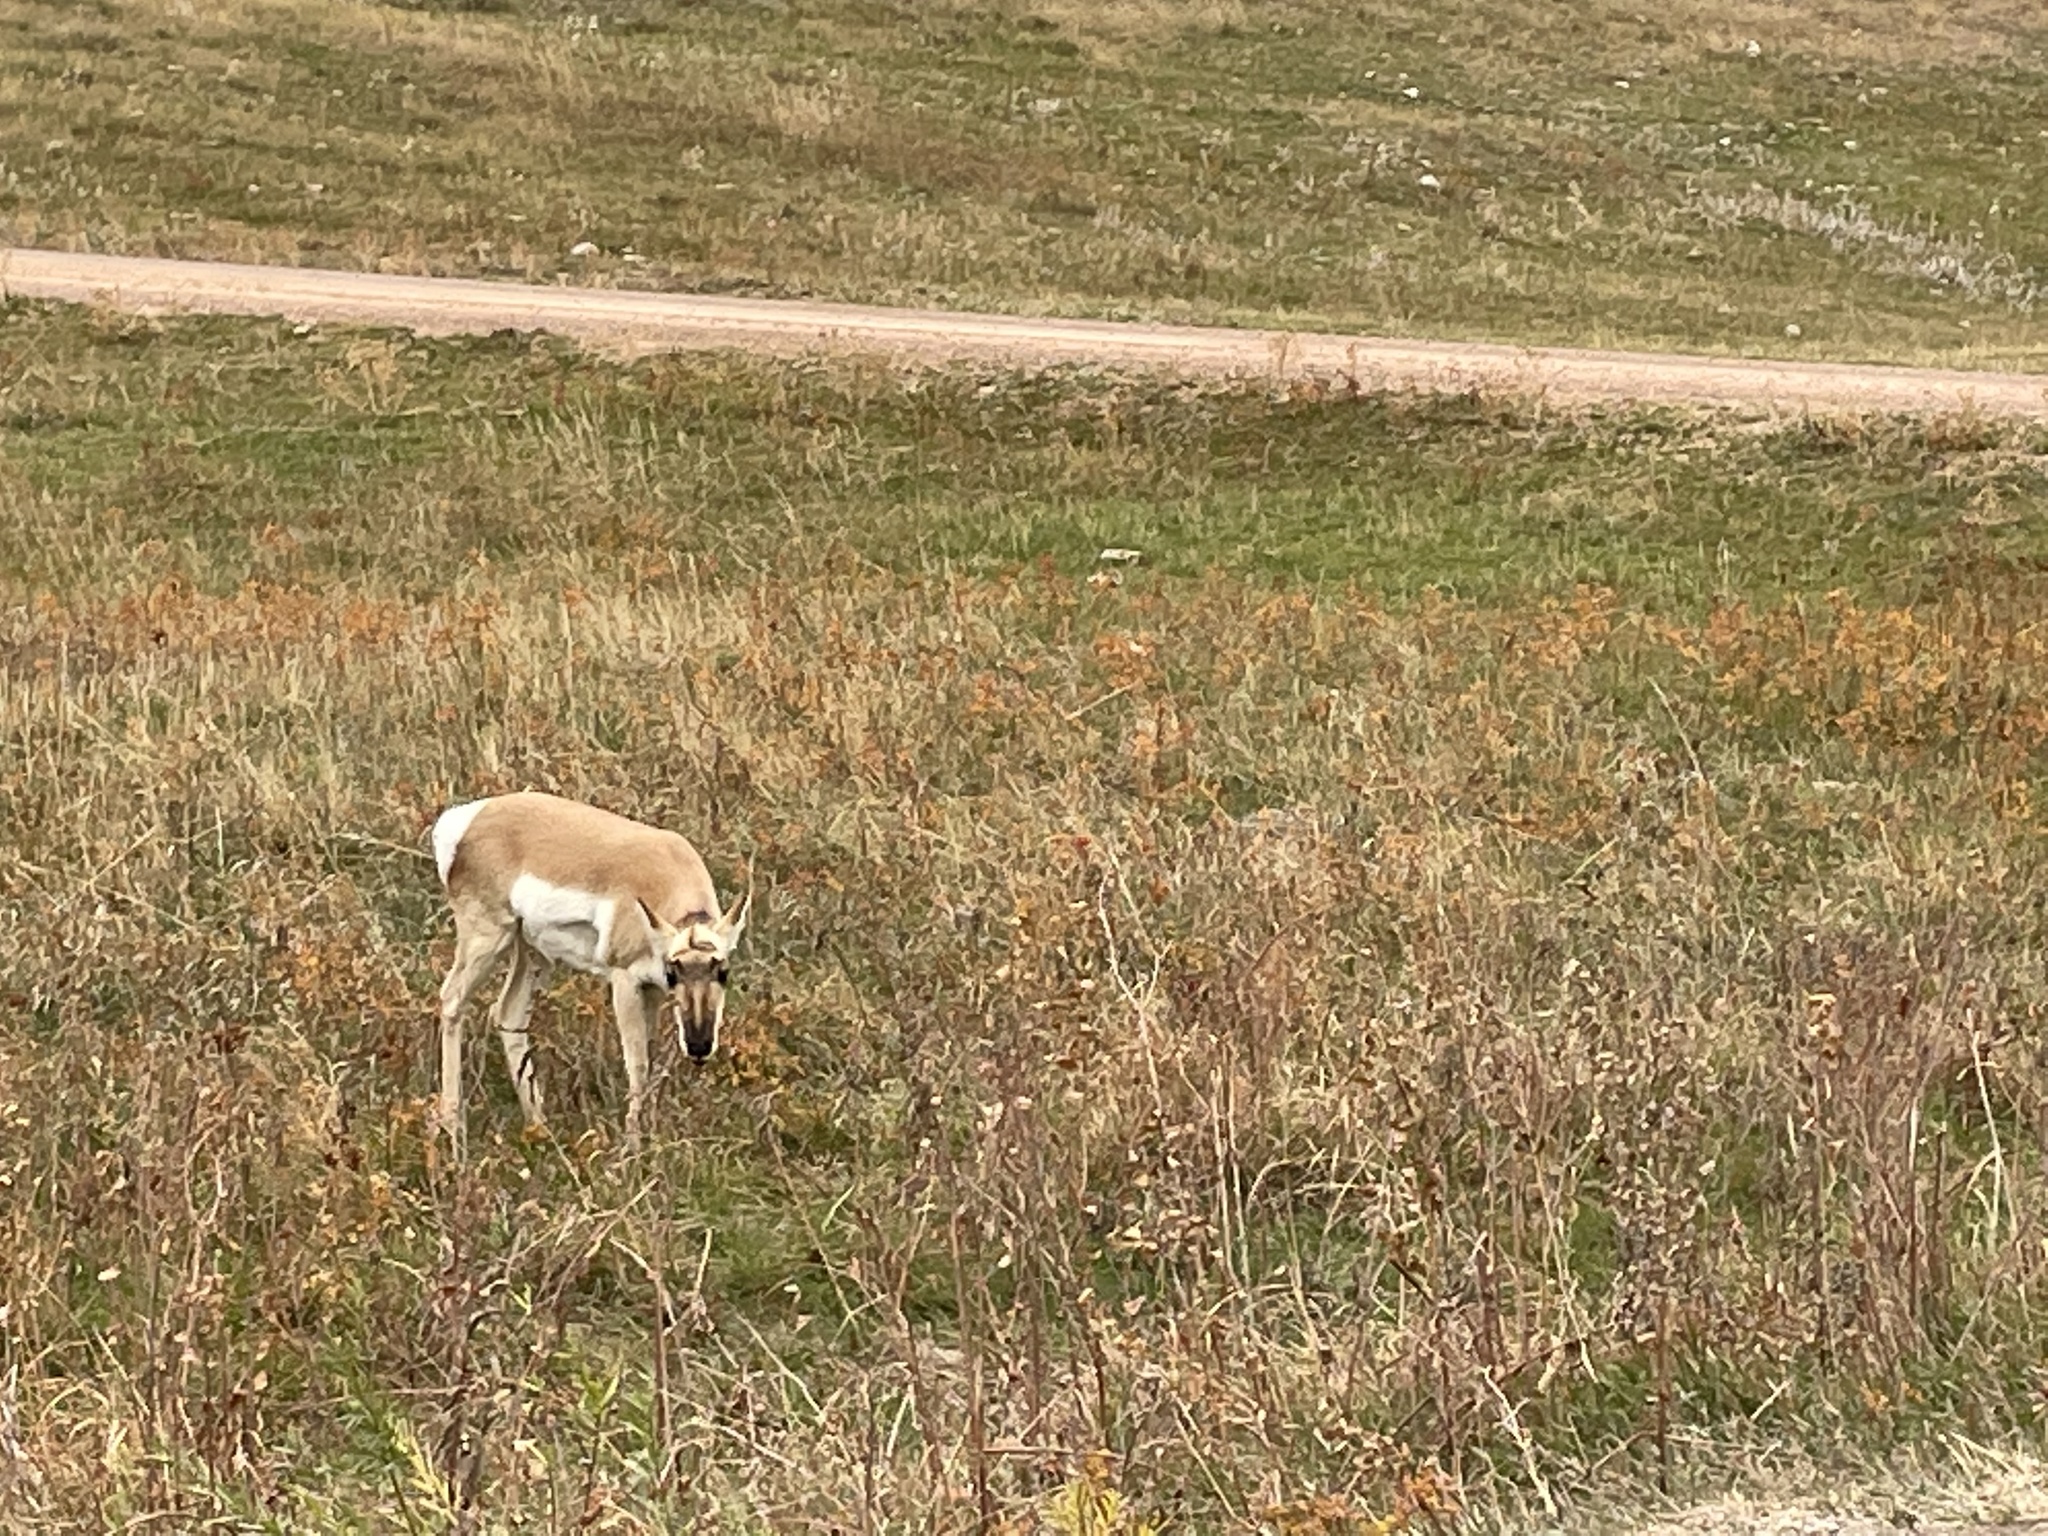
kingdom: Animalia
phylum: Chordata
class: Mammalia
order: Artiodactyla
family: Antilocapridae
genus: Antilocapra
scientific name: Antilocapra americana
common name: Pronghorn
